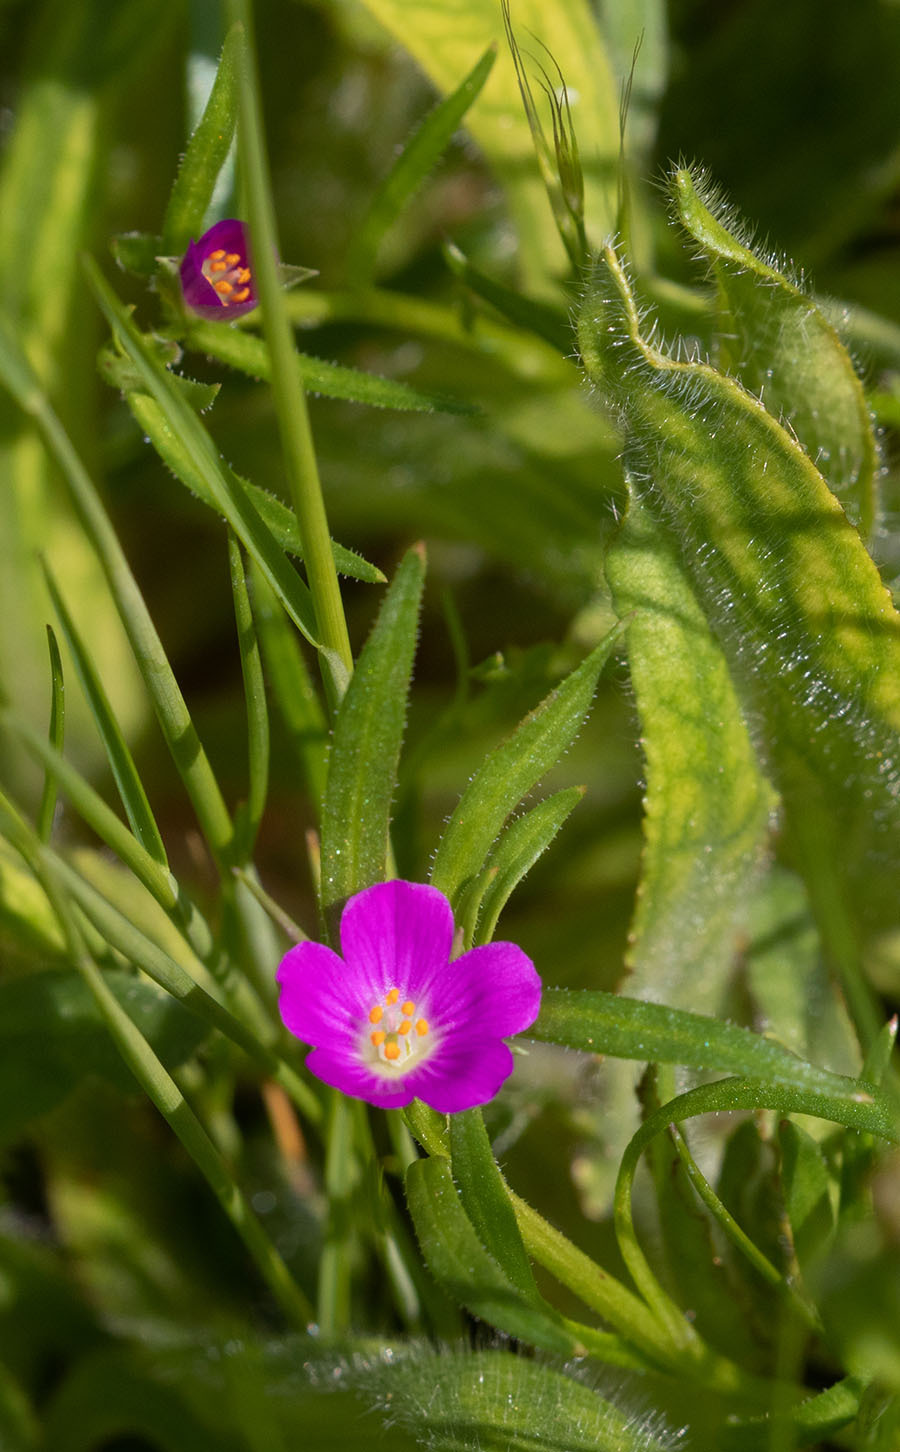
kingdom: Plantae
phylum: Tracheophyta
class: Magnoliopsida
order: Caryophyllales
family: Montiaceae
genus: Calandrinia
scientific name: Calandrinia menziesii
